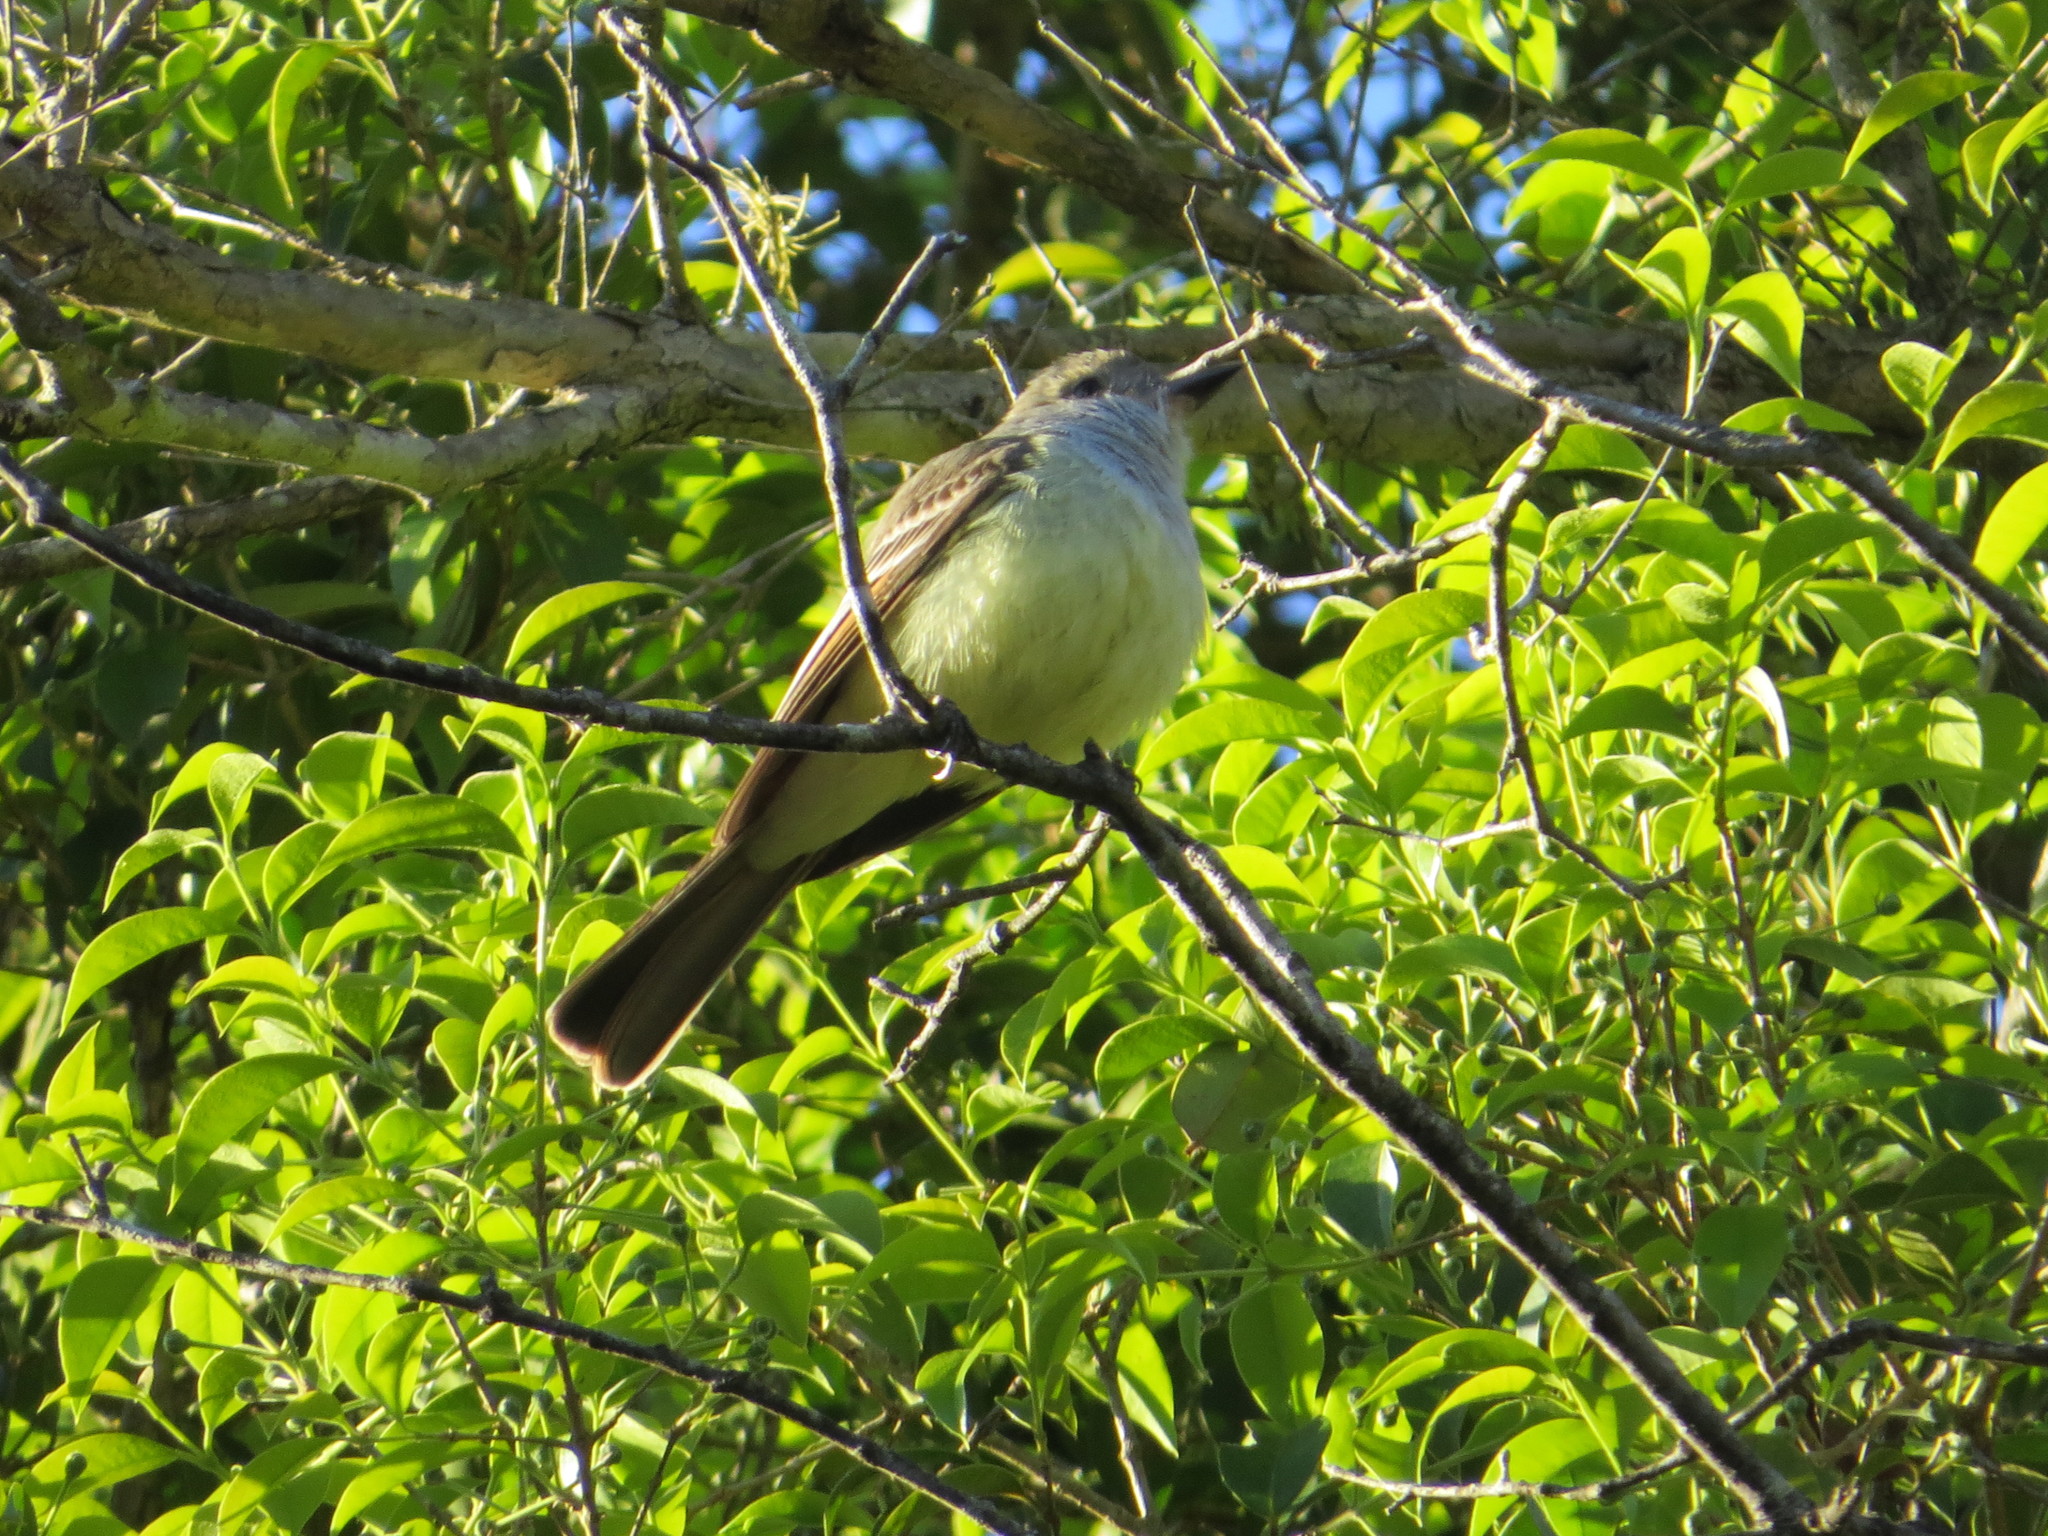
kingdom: Animalia
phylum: Chordata
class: Aves
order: Passeriformes
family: Tyrannidae
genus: Myiarchus
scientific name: Myiarchus tyrannulus
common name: Brown-crested flycatcher
